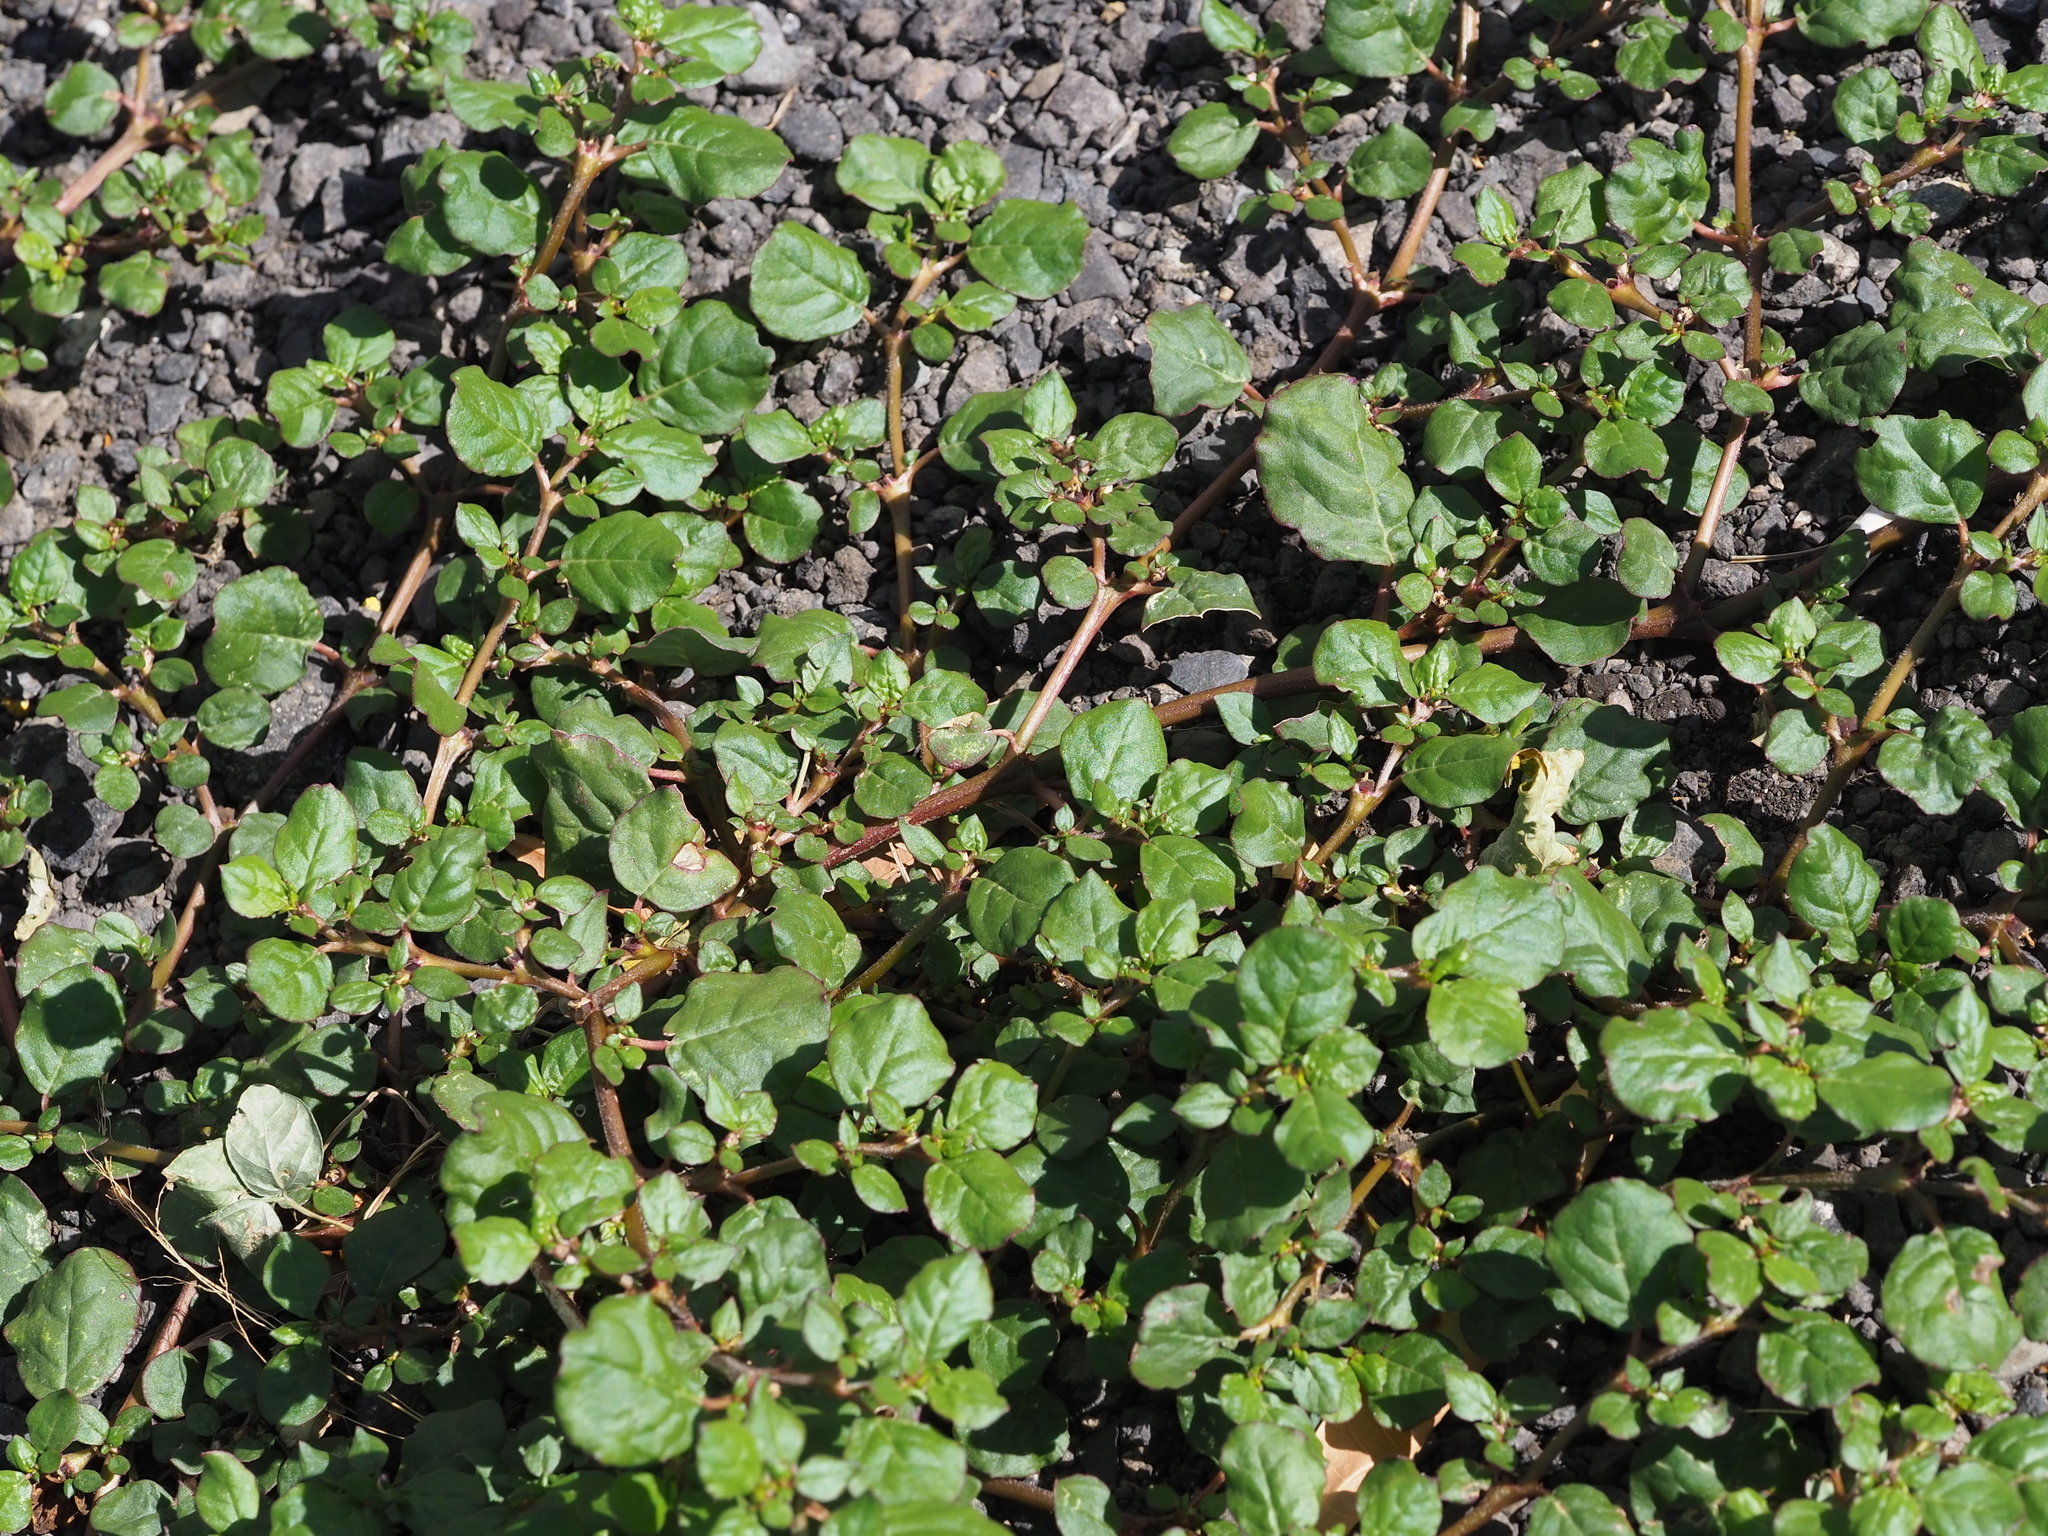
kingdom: Plantae
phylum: Tracheophyta
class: Magnoliopsida
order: Caryophyllales
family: Aizoaceae
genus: Trianthema
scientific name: Trianthema portulacastrum
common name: Desert horsepurslane
